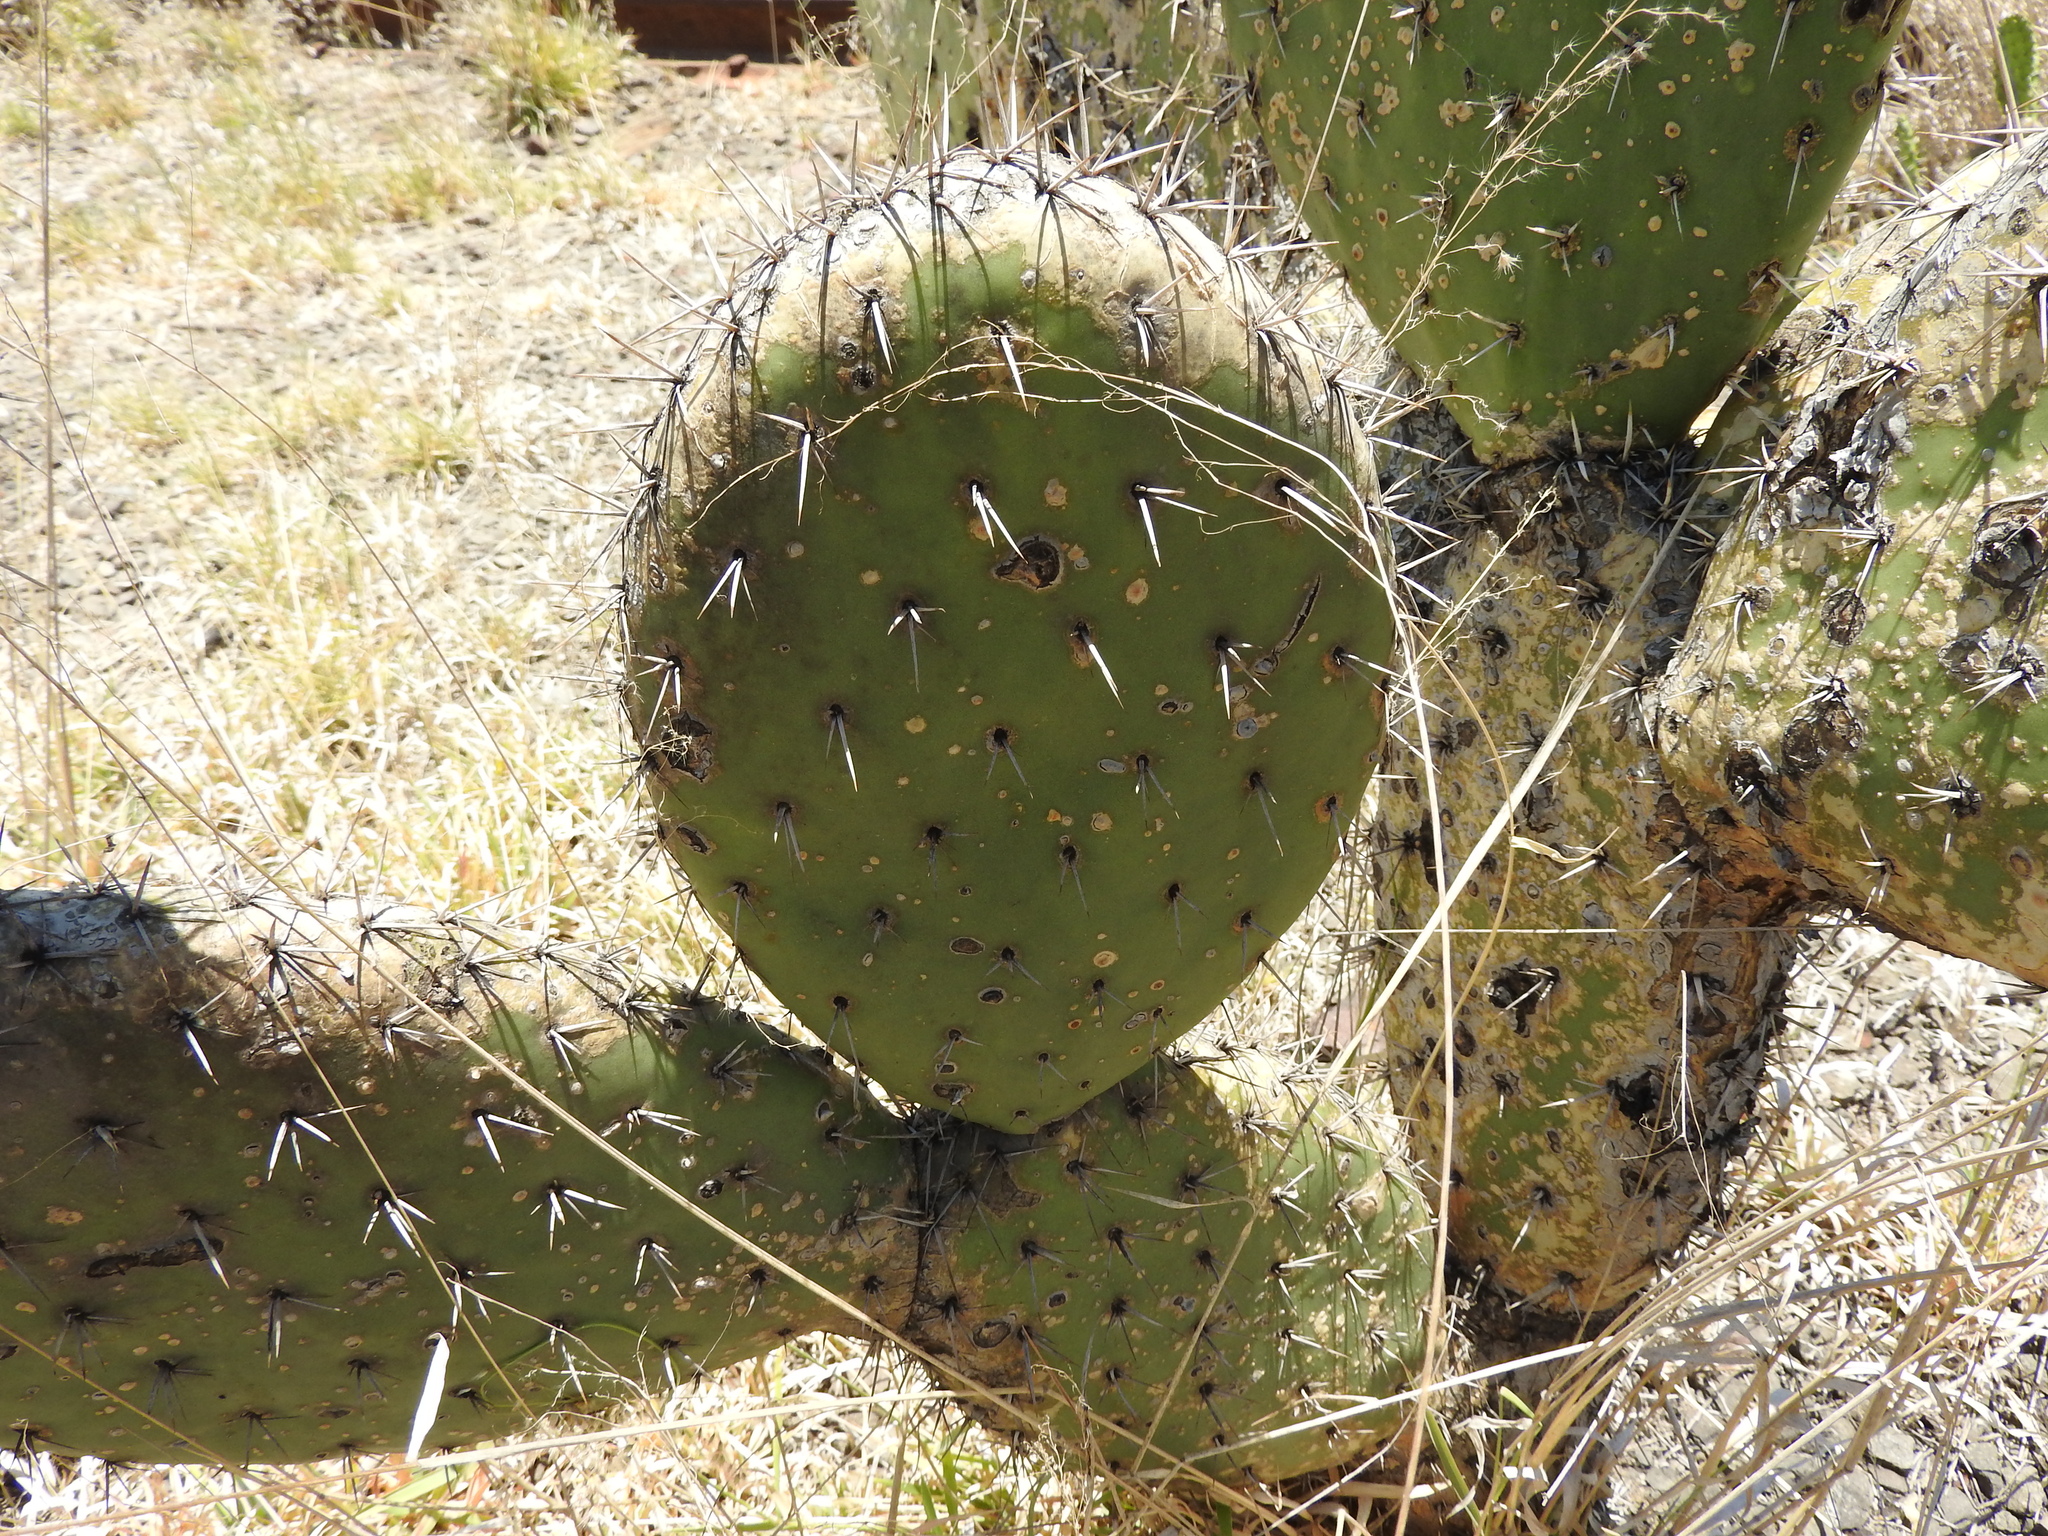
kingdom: Plantae
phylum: Tracheophyta
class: Magnoliopsida
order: Caryophyllales
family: Cactaceae
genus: Opuntia
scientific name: Opuntia streptacantha
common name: Gracemere-pear
